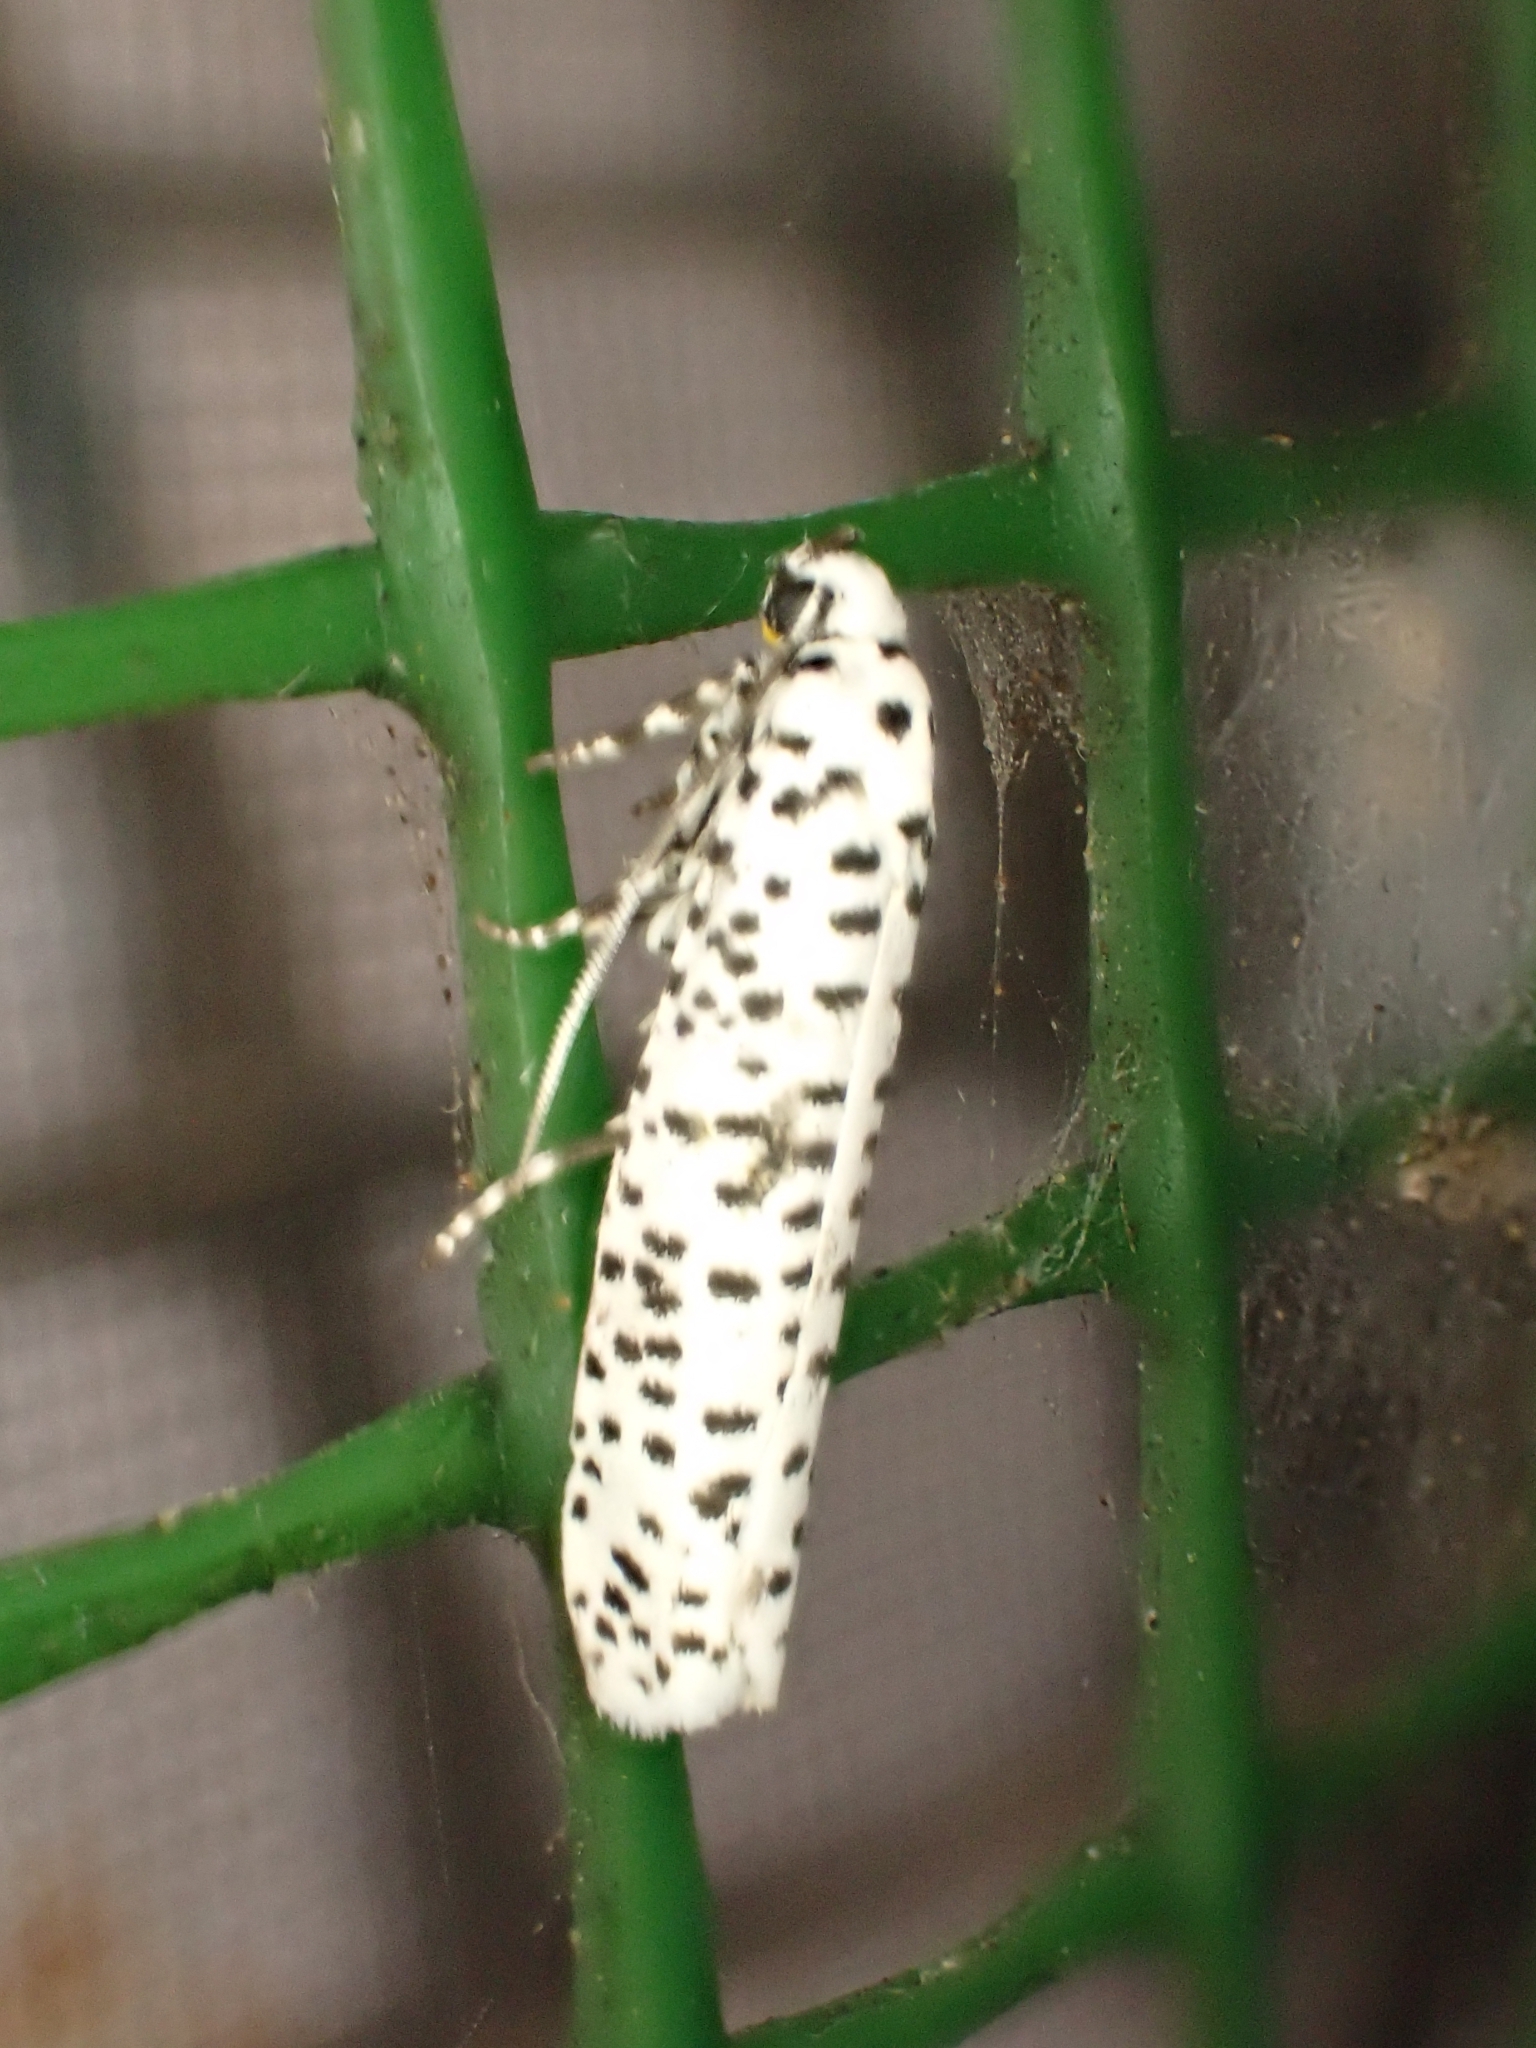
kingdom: Animalia
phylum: Arthropoda
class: Insecta
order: Lepidoptera
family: Yponomeutidae
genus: Yponomeuta
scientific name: Yponomeuta strigillata
